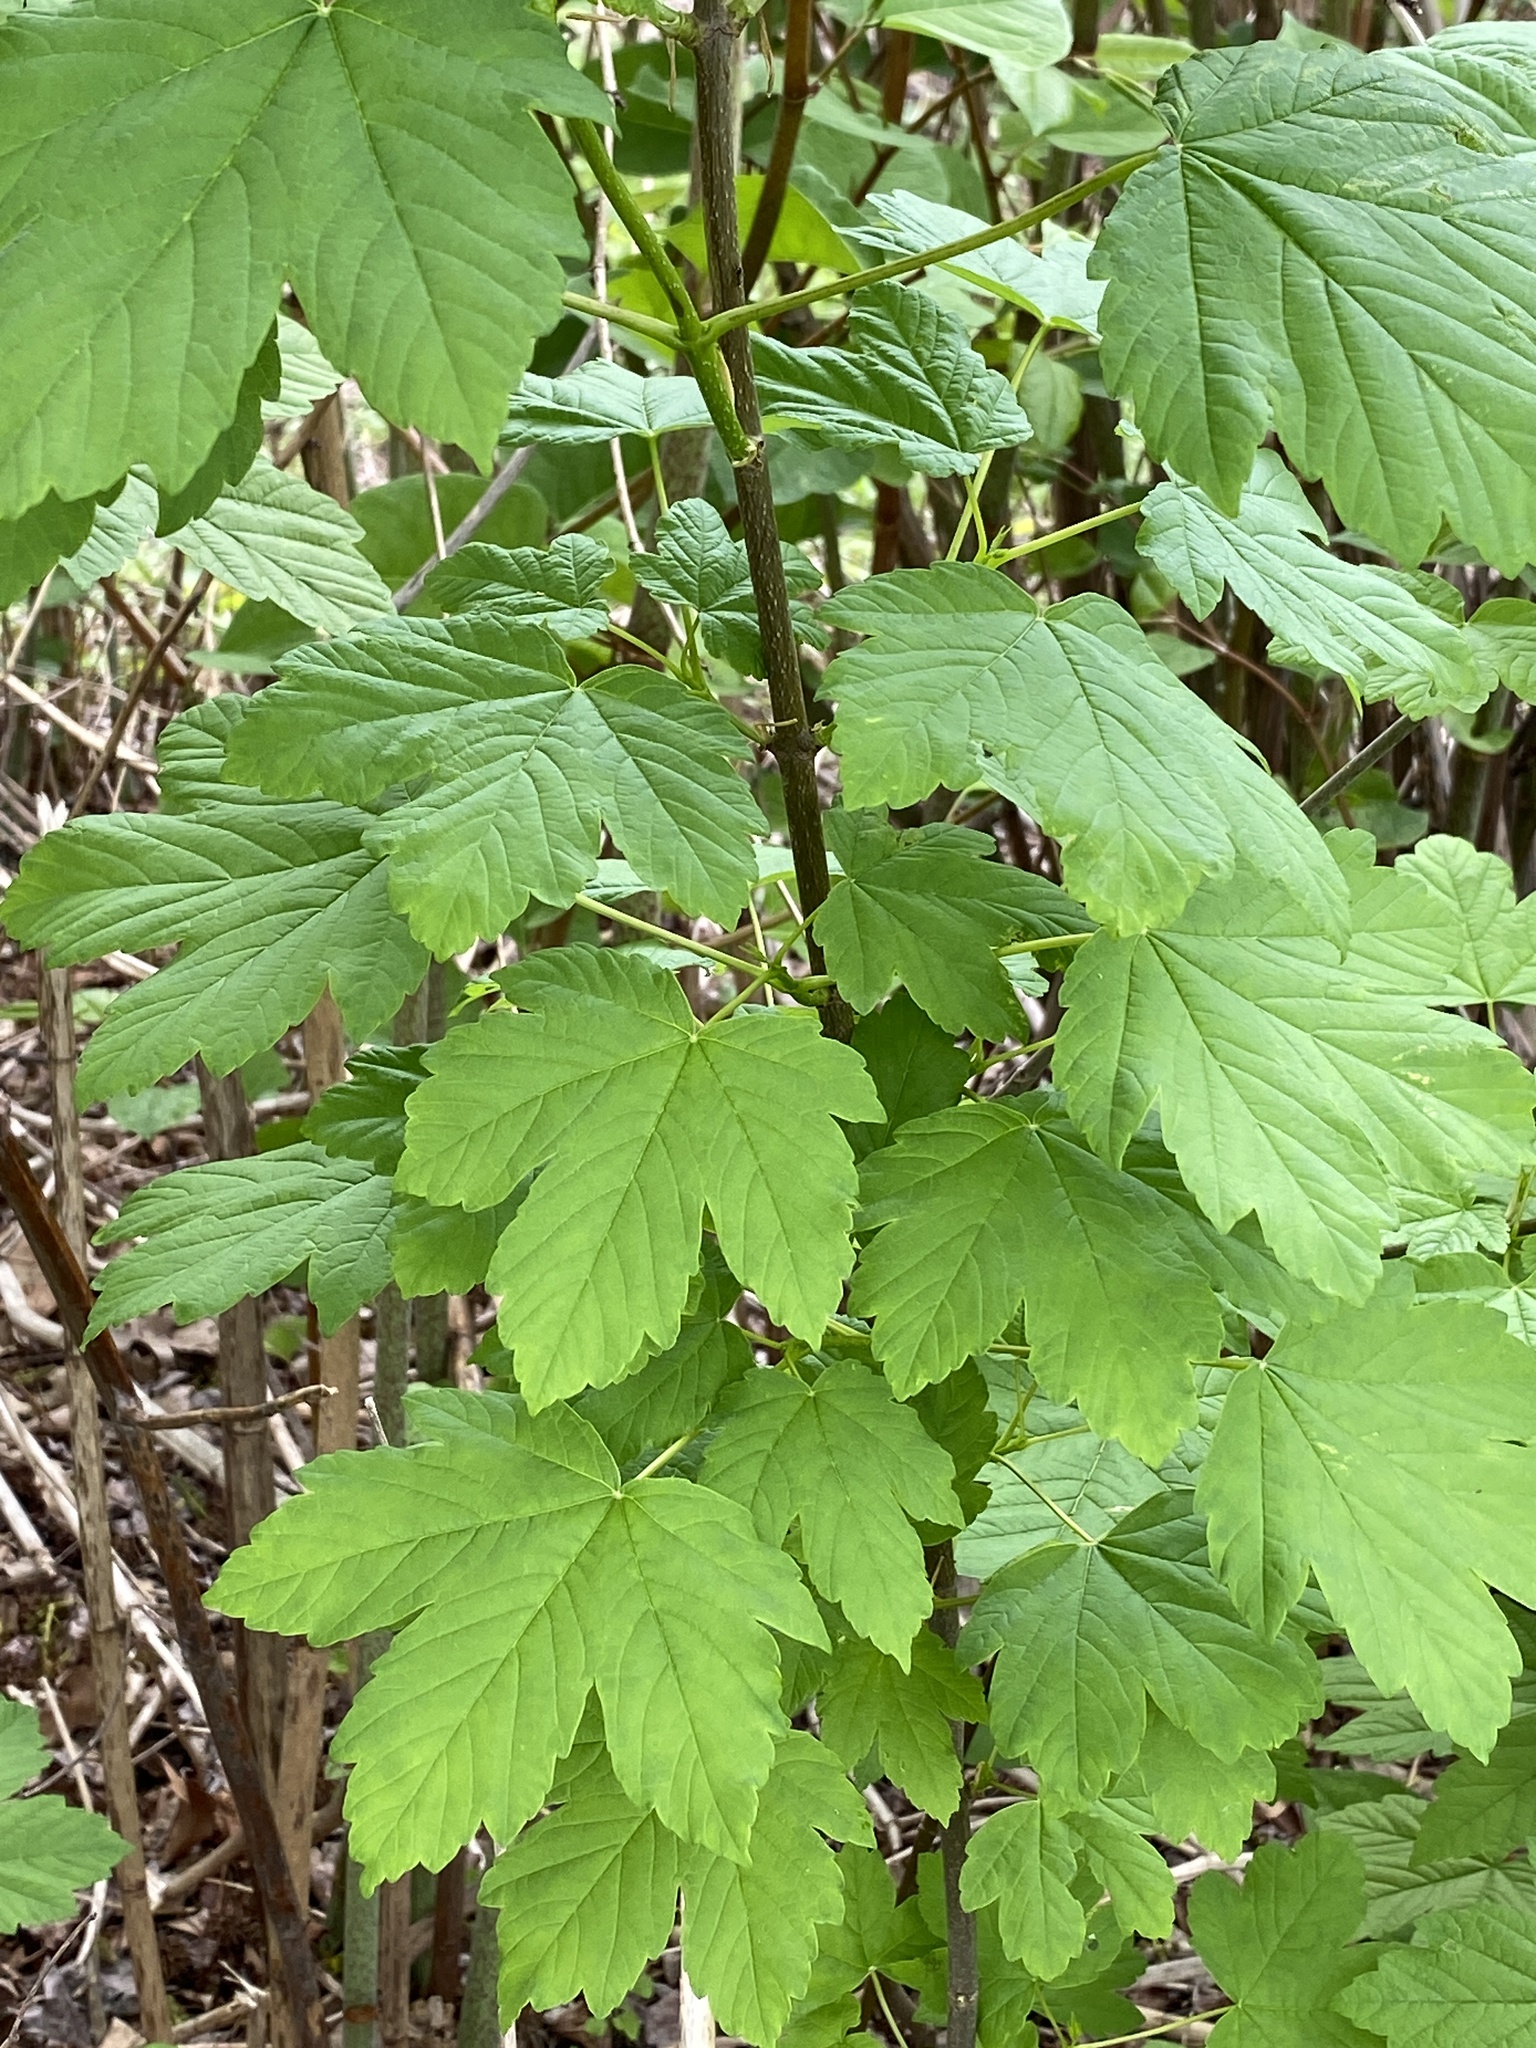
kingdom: Plantae
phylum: Tracheophyta
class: Magnoliopsida
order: Sapindales
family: Sapindaceae
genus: Acer
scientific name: Acer pseudoplatanus
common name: Sycamore
